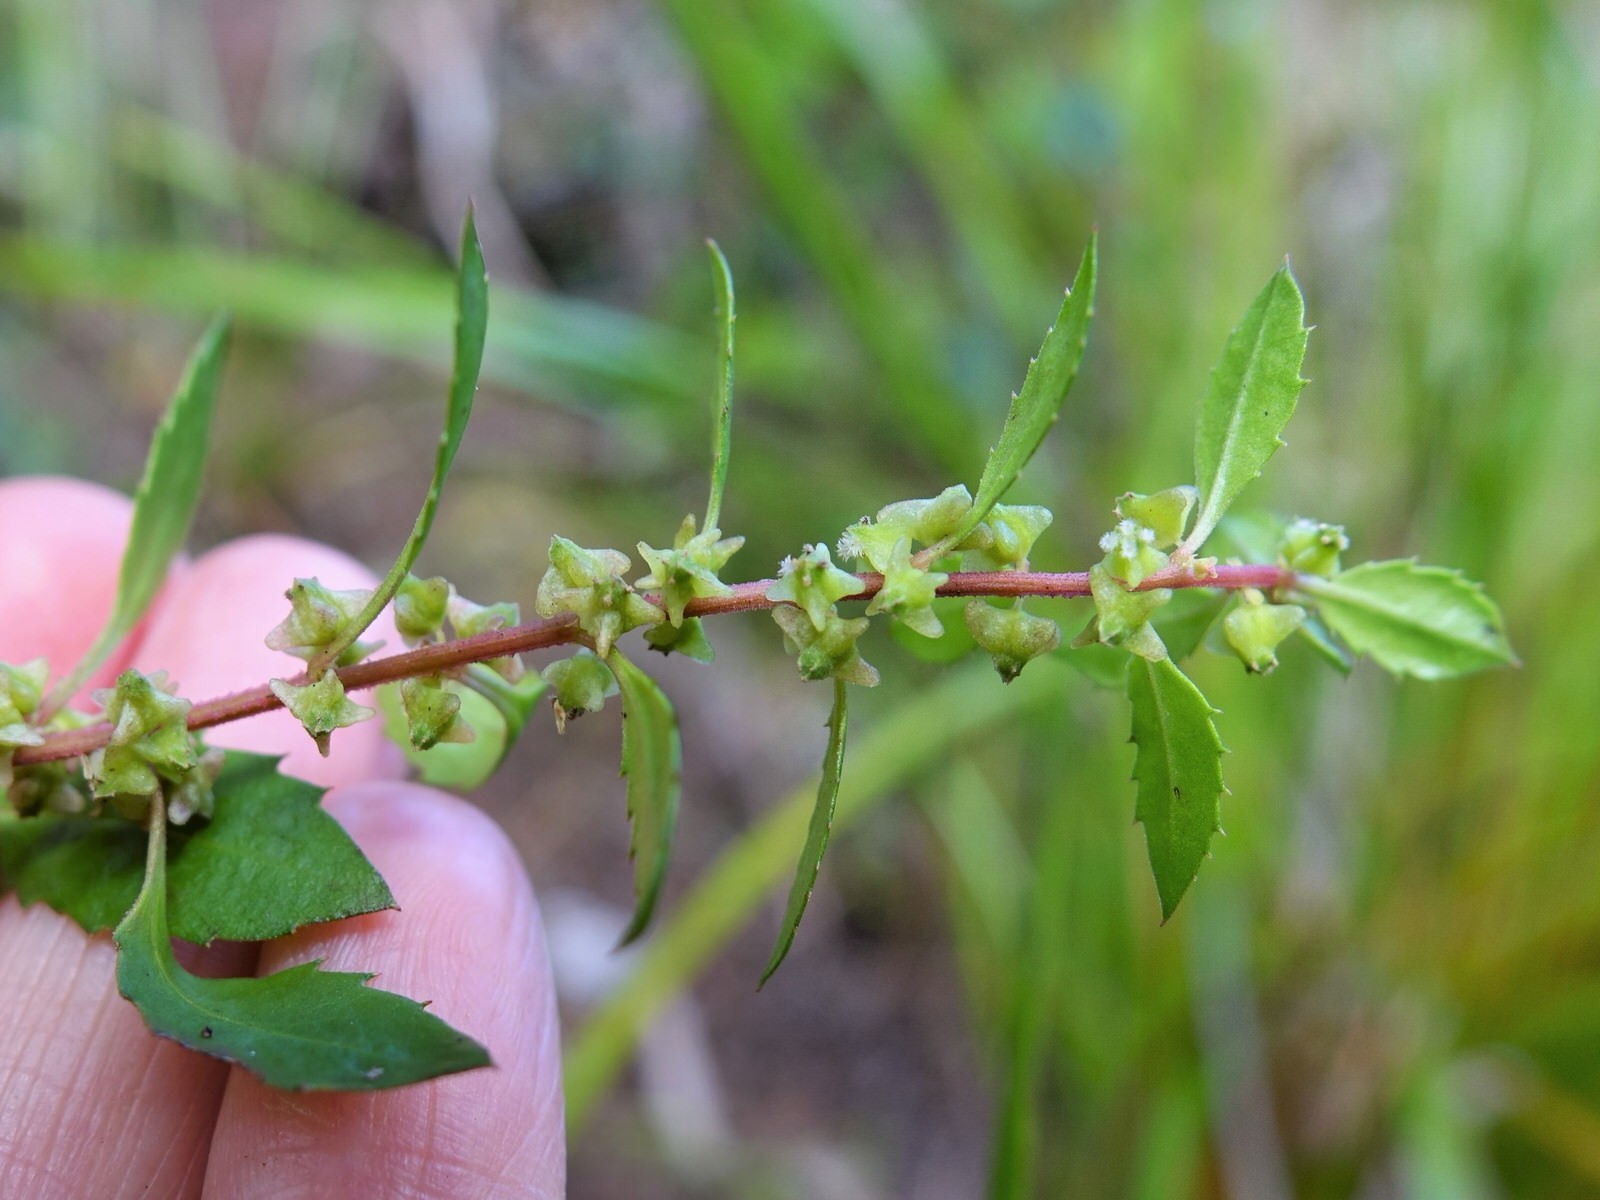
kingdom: Plantae
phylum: Tracheophyta
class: Magnoliopsida
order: Saxifragales
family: Haloragaceae
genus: Haloragis
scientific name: Haloragis erecta
